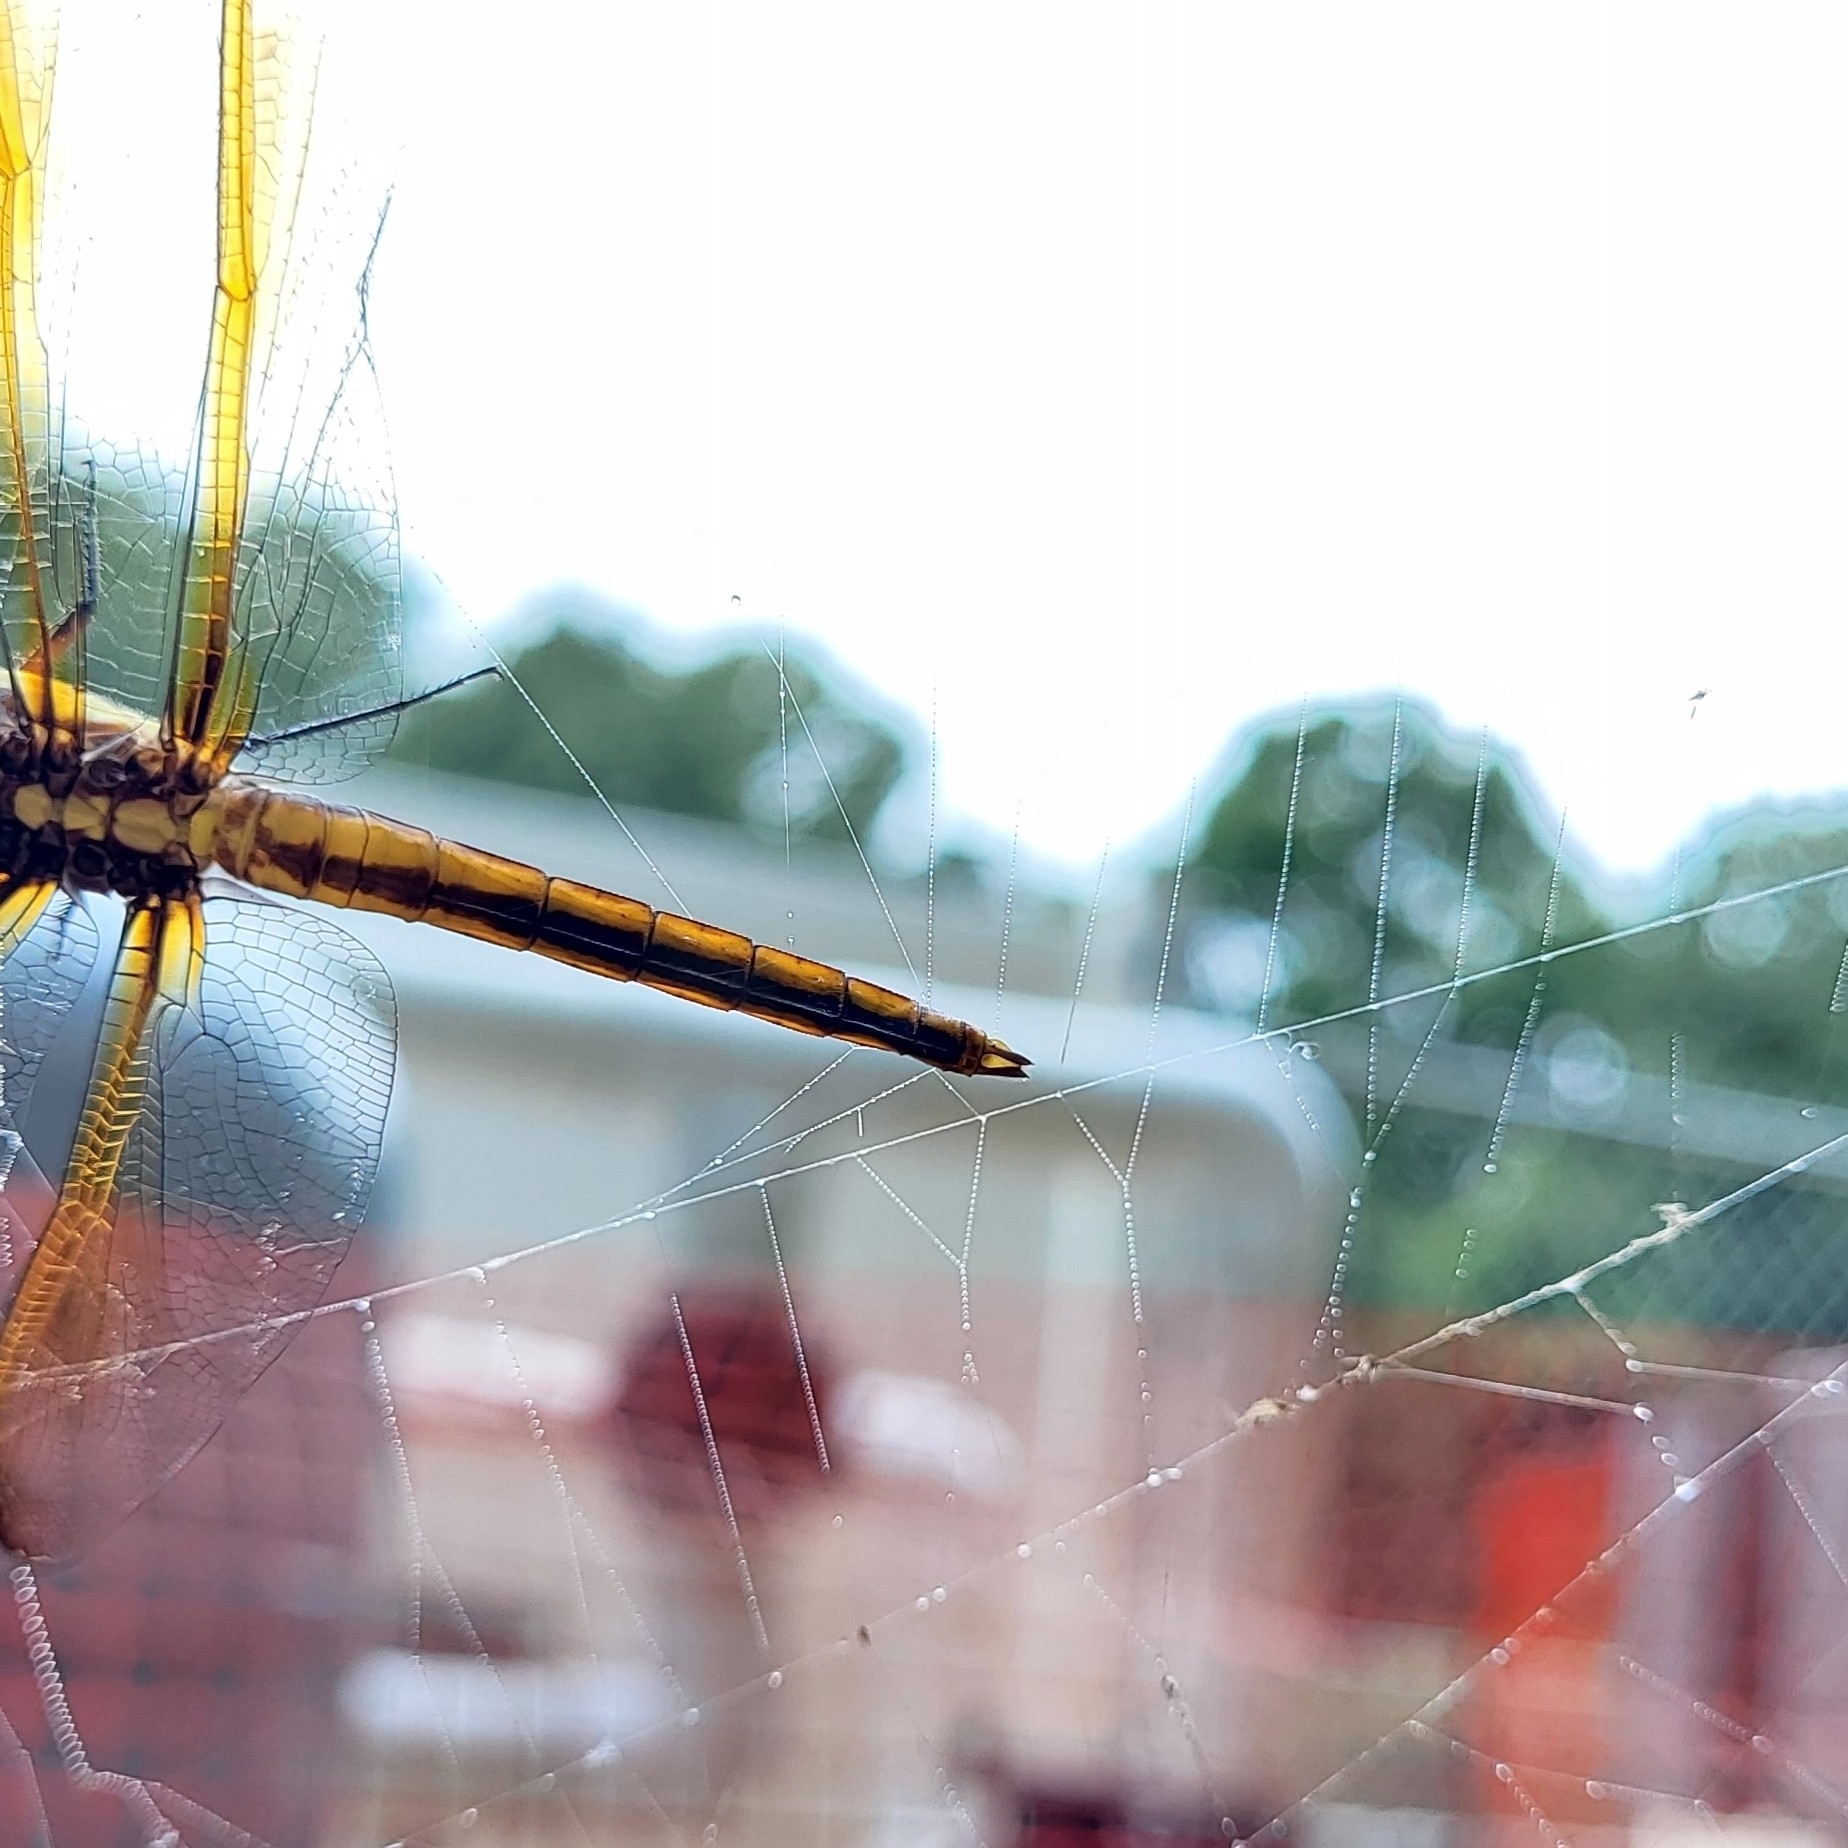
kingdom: Animalia
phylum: Arthropoda
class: Insecta
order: Odonata
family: Libellulidae
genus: Libellula
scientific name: Libellula flavida
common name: Yellow-sided skimmer
